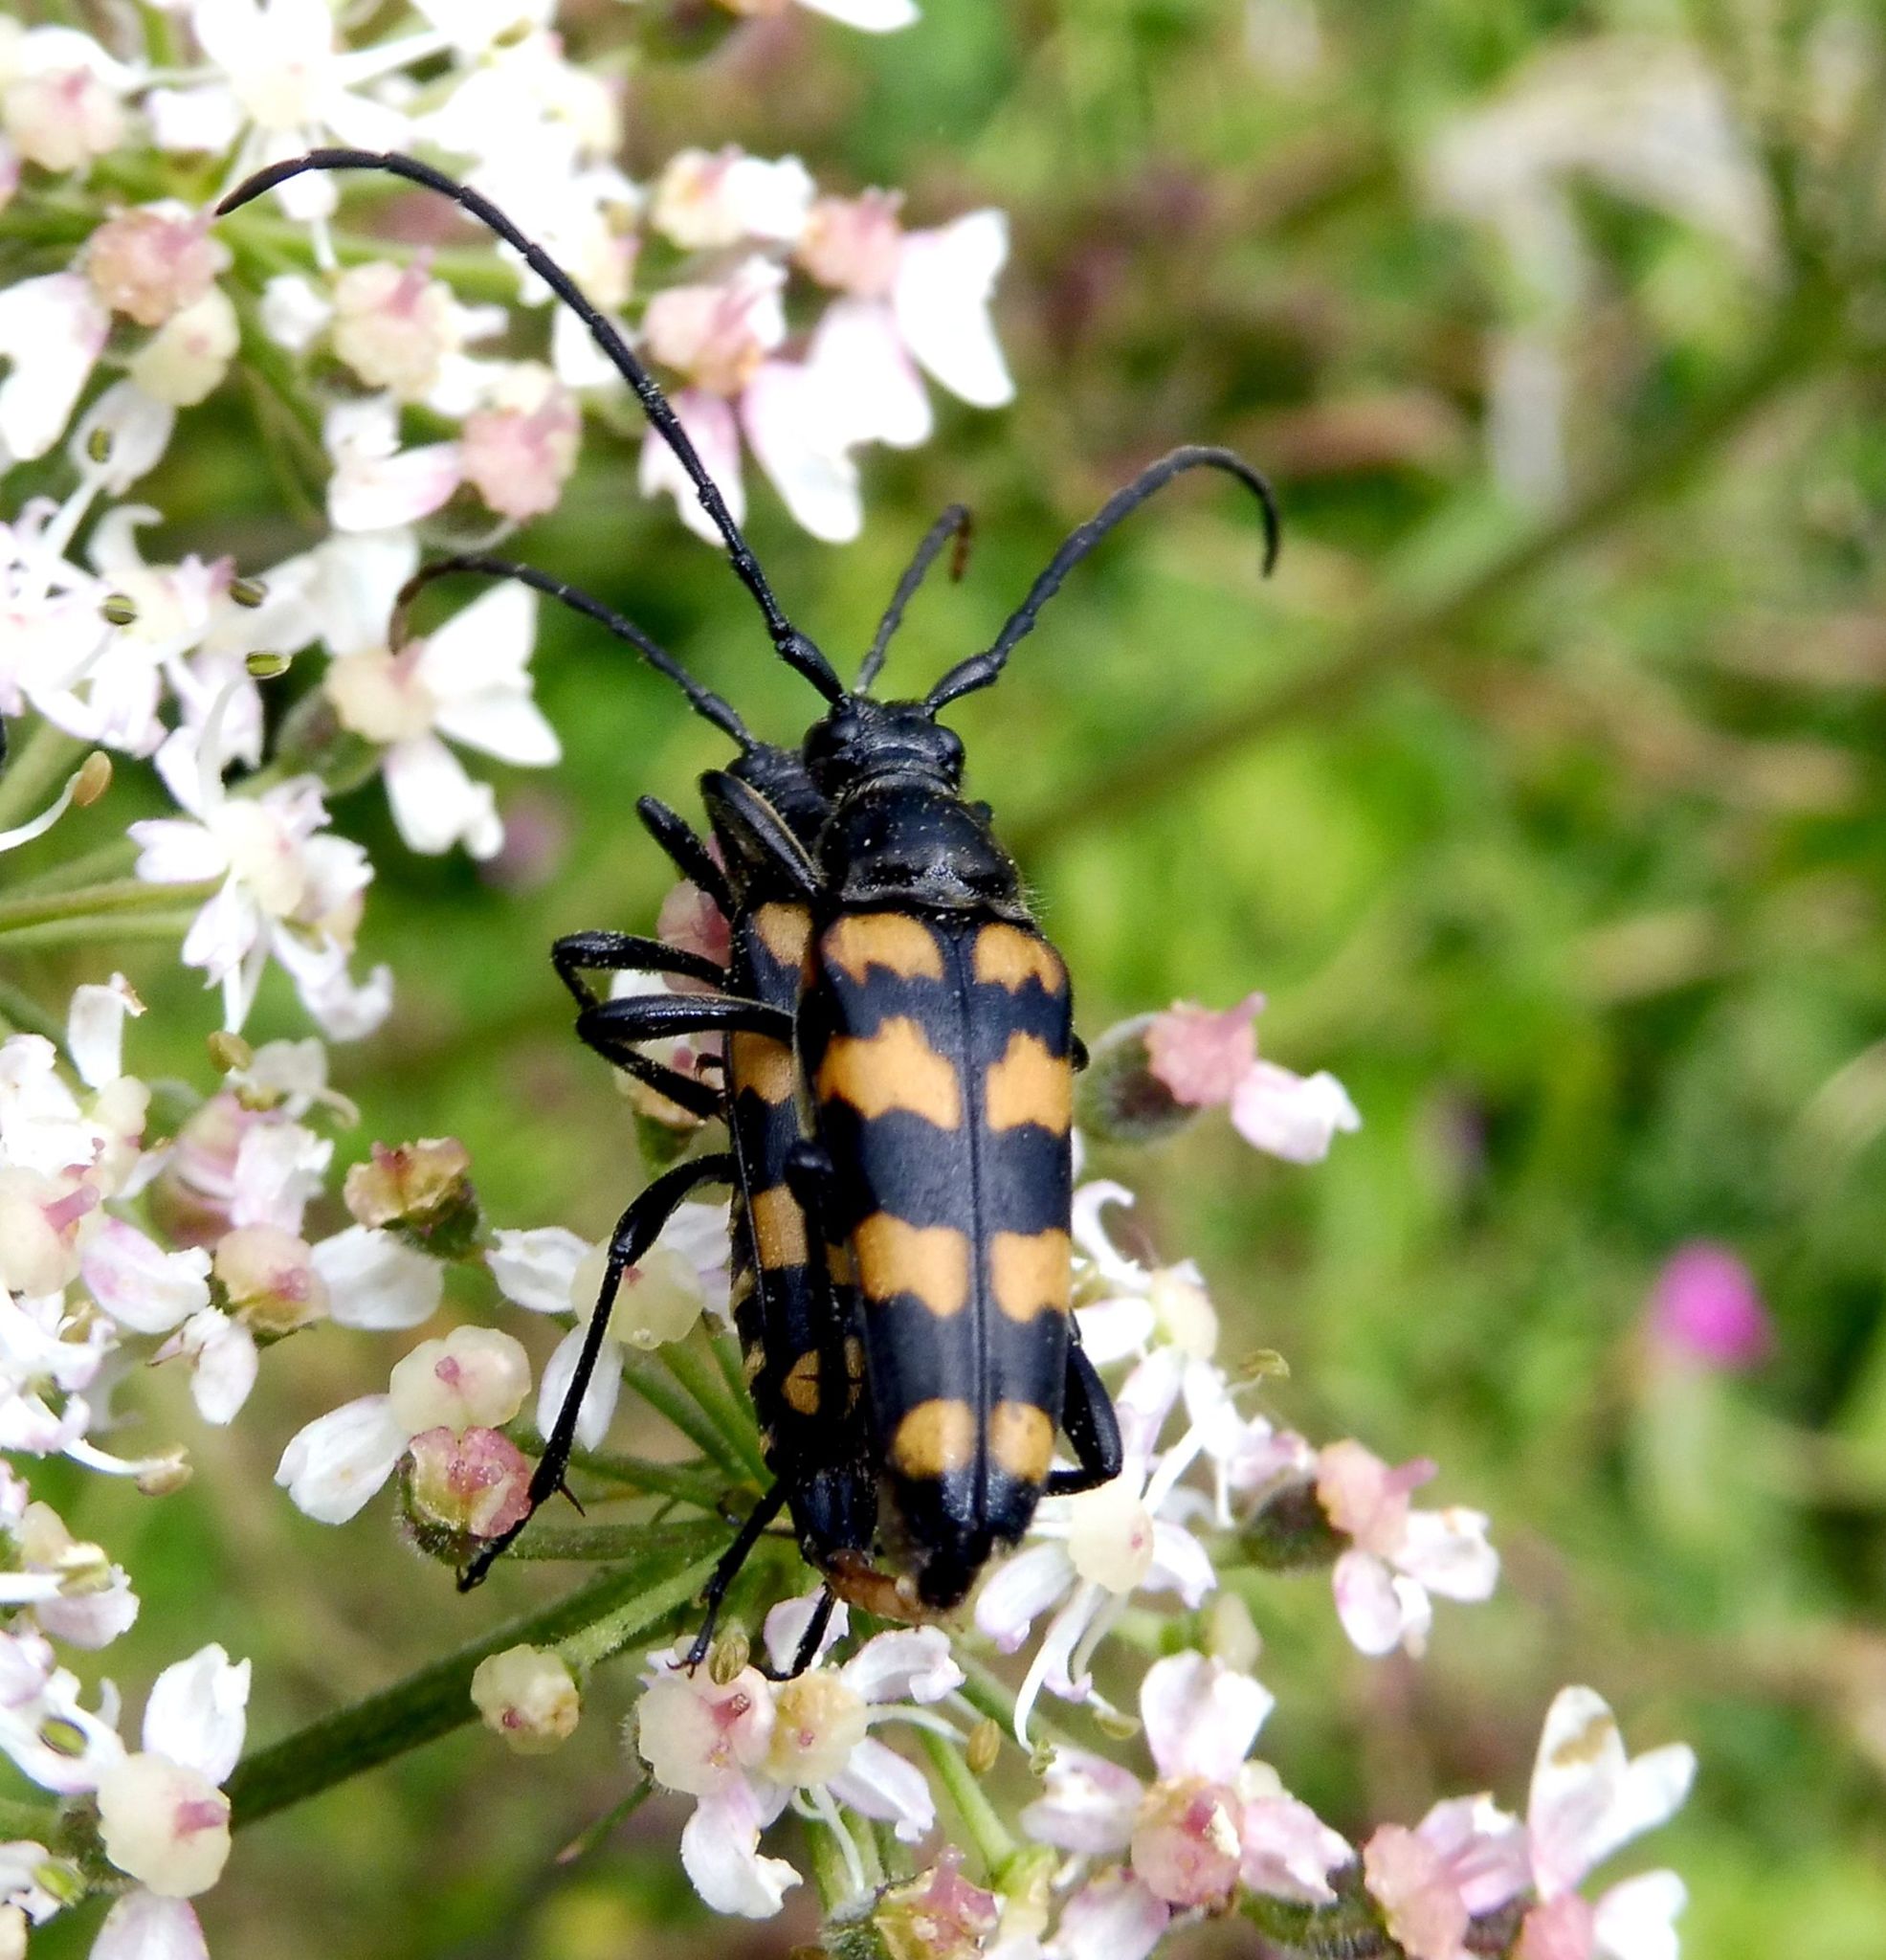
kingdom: Animalia
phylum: Arthropoda
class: Insecta
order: Coleoptera
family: Cerambycidae
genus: Leptura
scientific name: Leptura quadrifasciata
